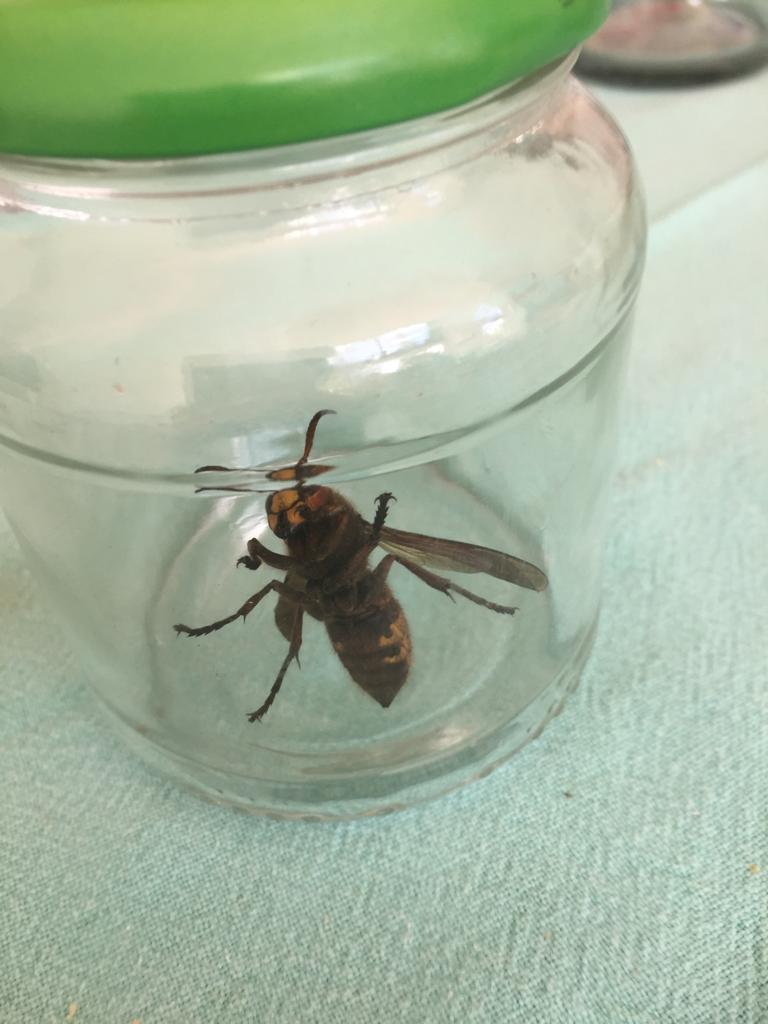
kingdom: Animalia
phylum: Arthropoda
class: Insecta
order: Hymenoptera
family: Vespidae
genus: Vespa
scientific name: Vespa crabro
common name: Hornet
